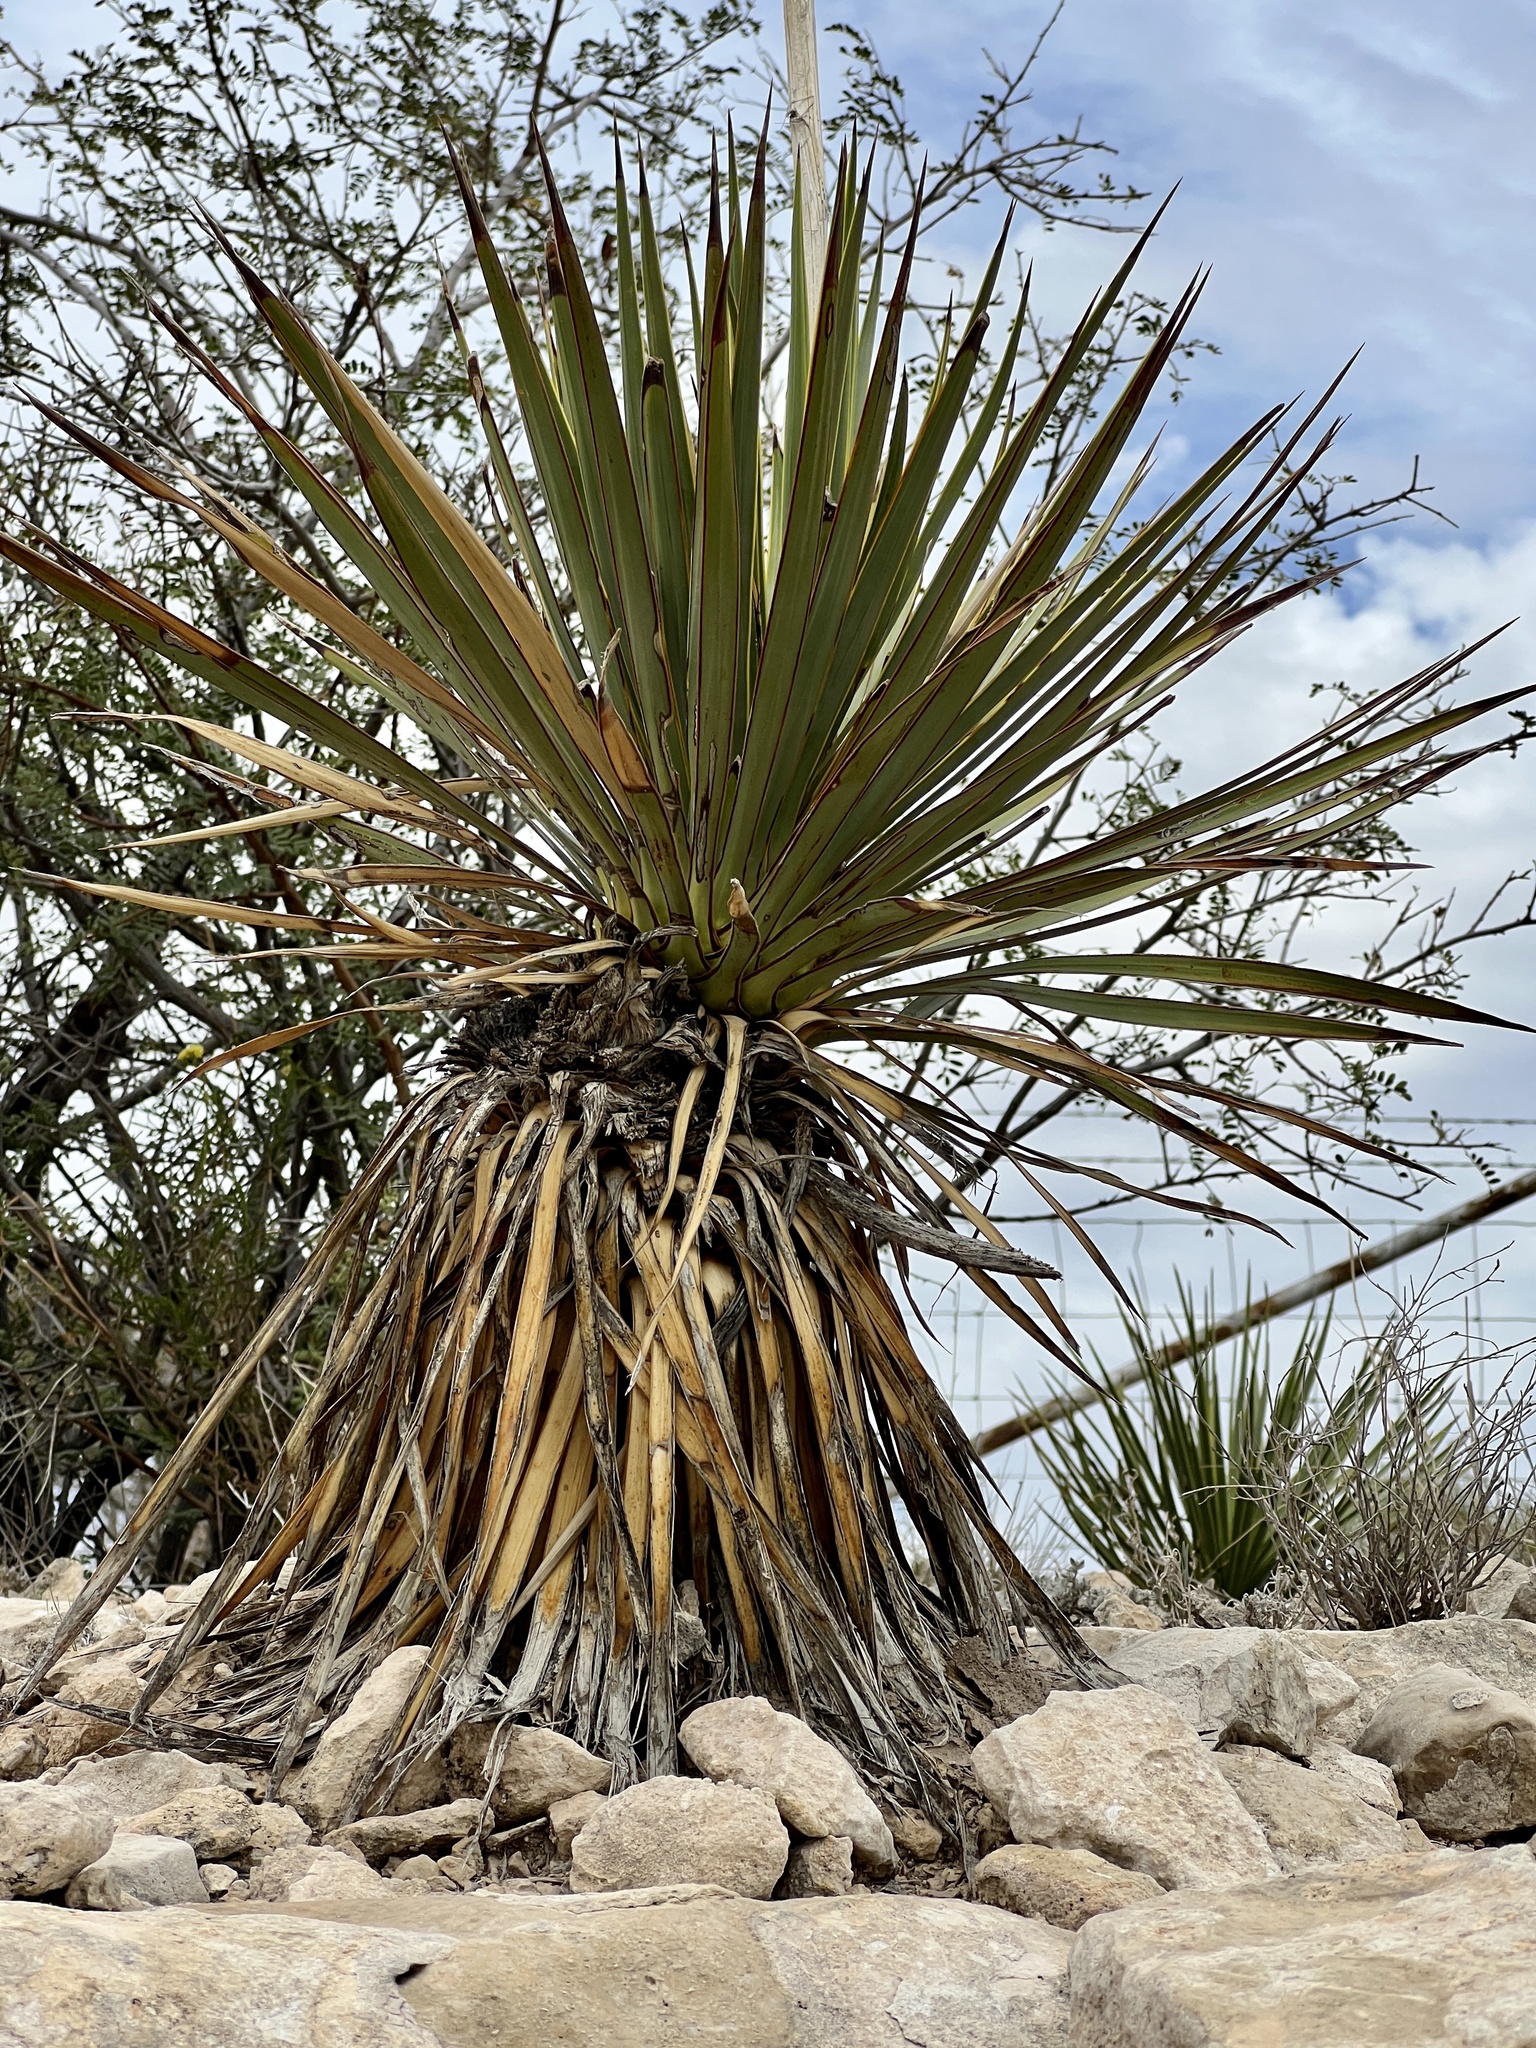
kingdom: Plantae
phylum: Tracheophyta
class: Liliopsida
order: Asparagales
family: Asparagaceae
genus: Yucca
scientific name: Yucca treculiana
